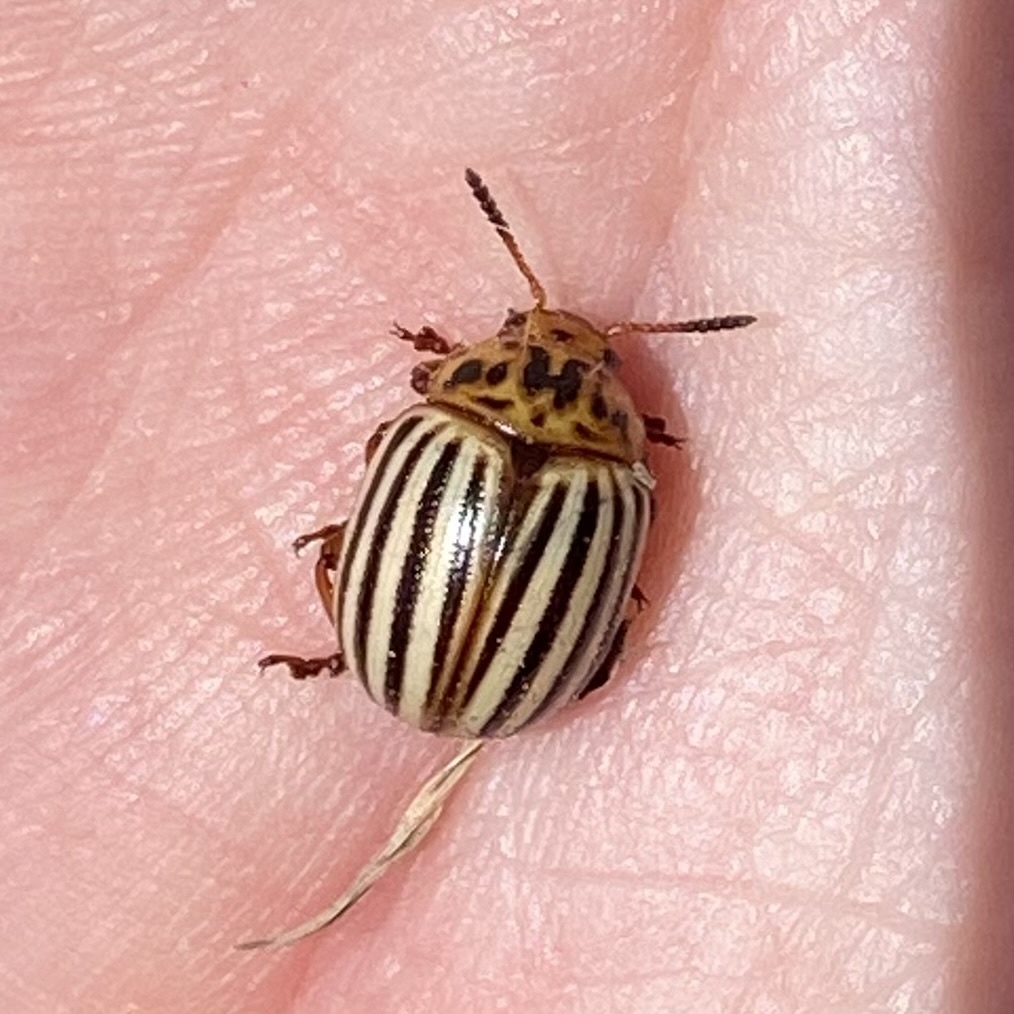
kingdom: Animalia
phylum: Arthropoda
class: Insecta
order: Coleoptera
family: Chrysomelidae
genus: Leptinotarsa
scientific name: Leptinotarsa decemlineata
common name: Colorado potato beetle
